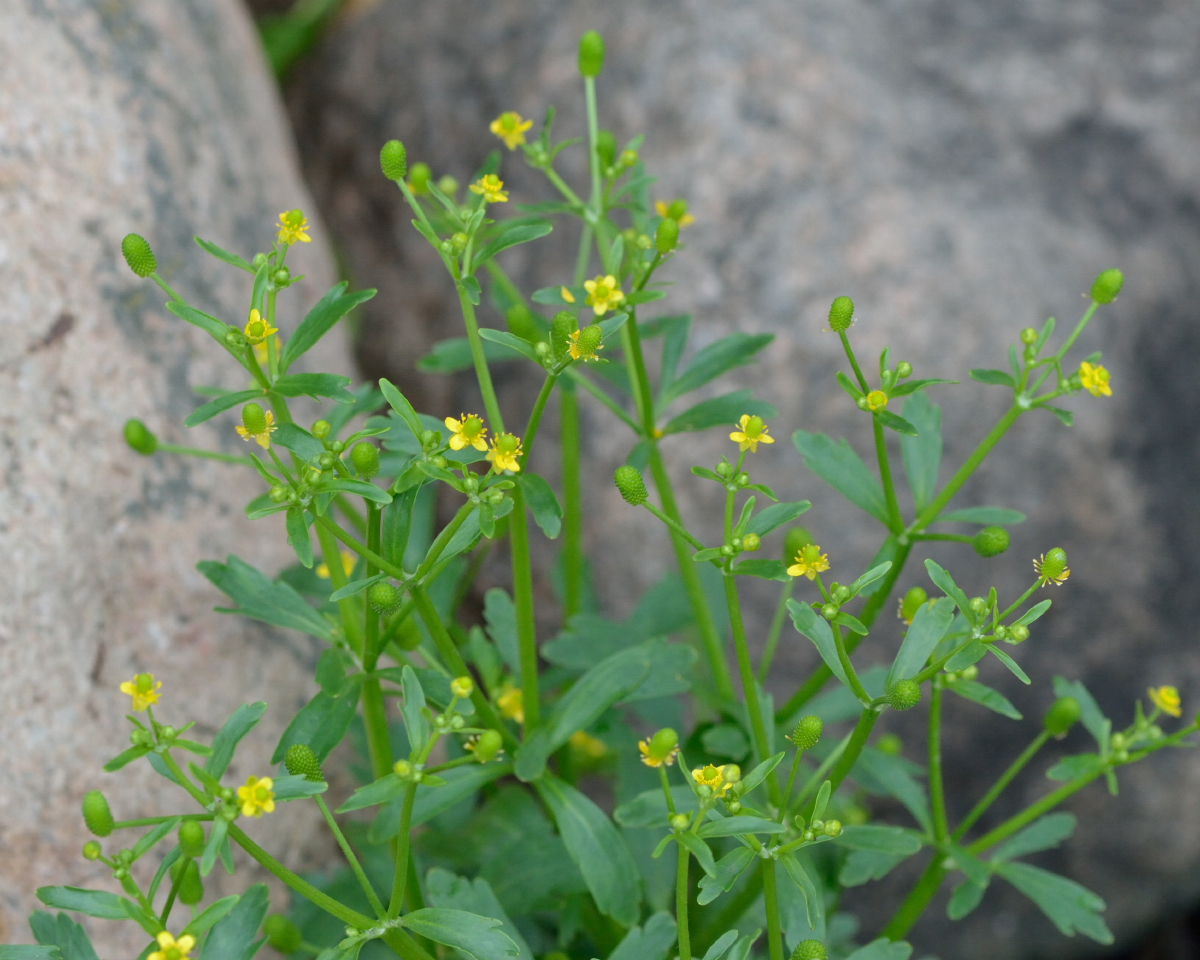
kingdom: Plantae
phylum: Tracheophyta
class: Magnoliopsida
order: Ranunculales
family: Ranunculaceae
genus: Ranunculus
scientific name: Ranunculus sceleratus
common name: Celery-leaved buttercup
